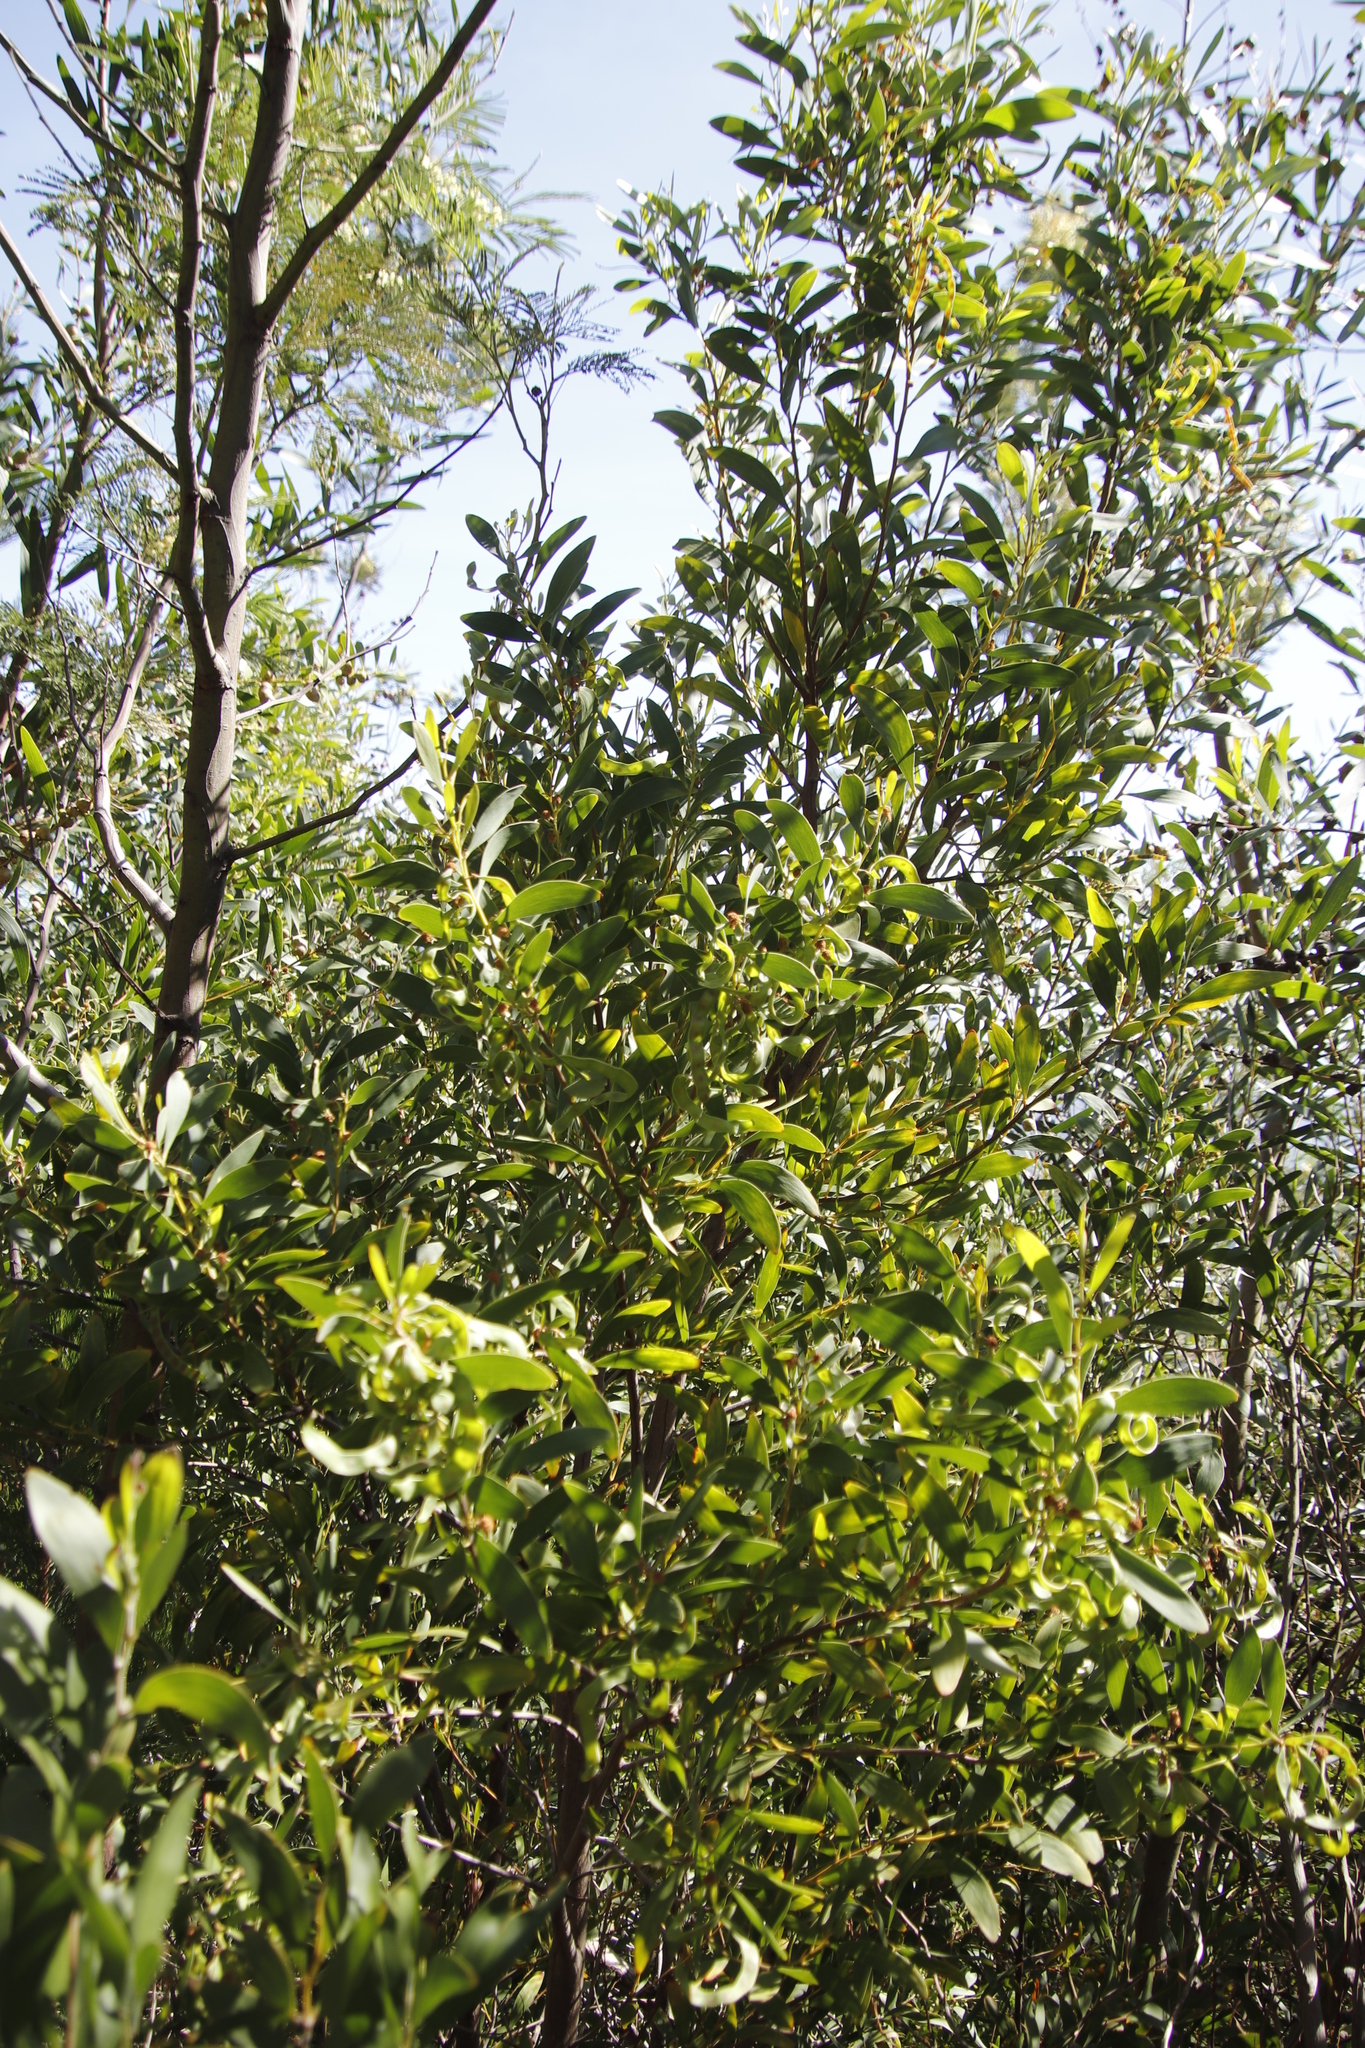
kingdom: Plantae
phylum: Tracheophyta
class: Magnoliopsida
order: Fabales
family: Fabaceae
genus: Acacia
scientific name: Acacia melanoxylon
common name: Blackwood
